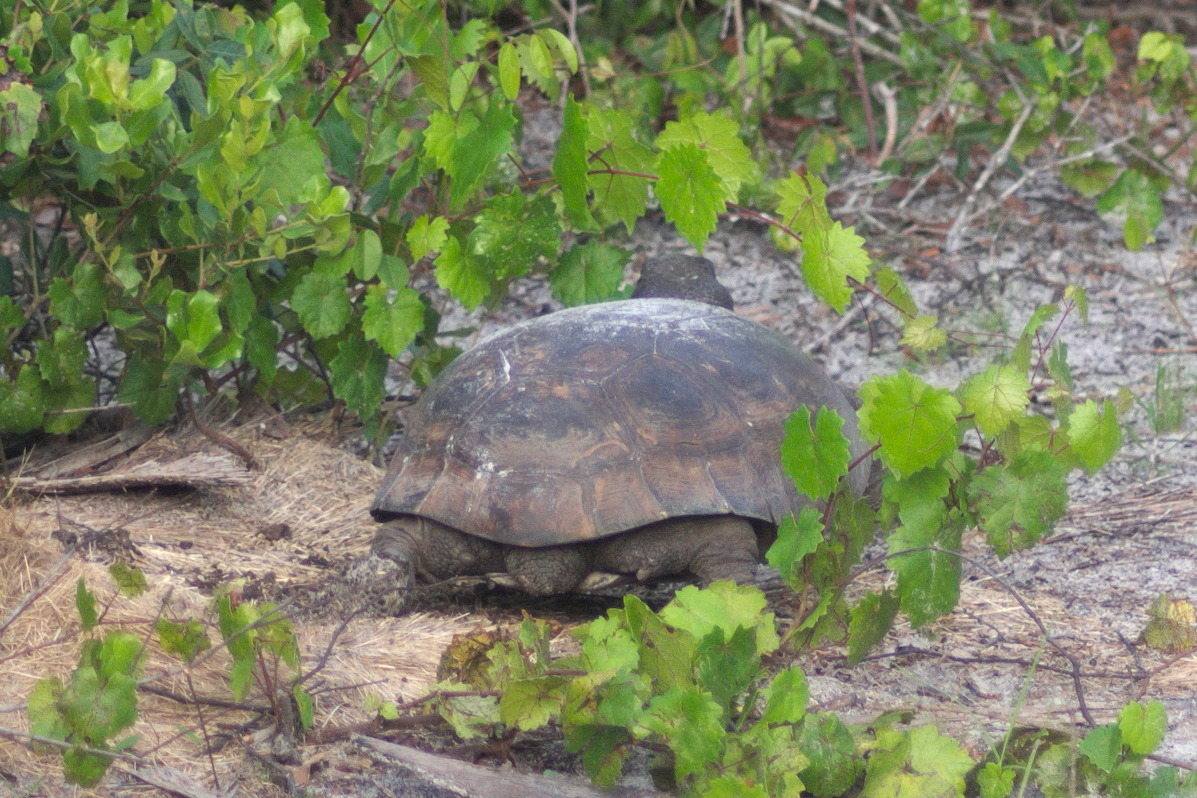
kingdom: Animalia
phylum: Chordata
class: Testudines
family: Testudinidae
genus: Gopherus
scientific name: Gopherus polyphemus
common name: Florida gopher tortoise
